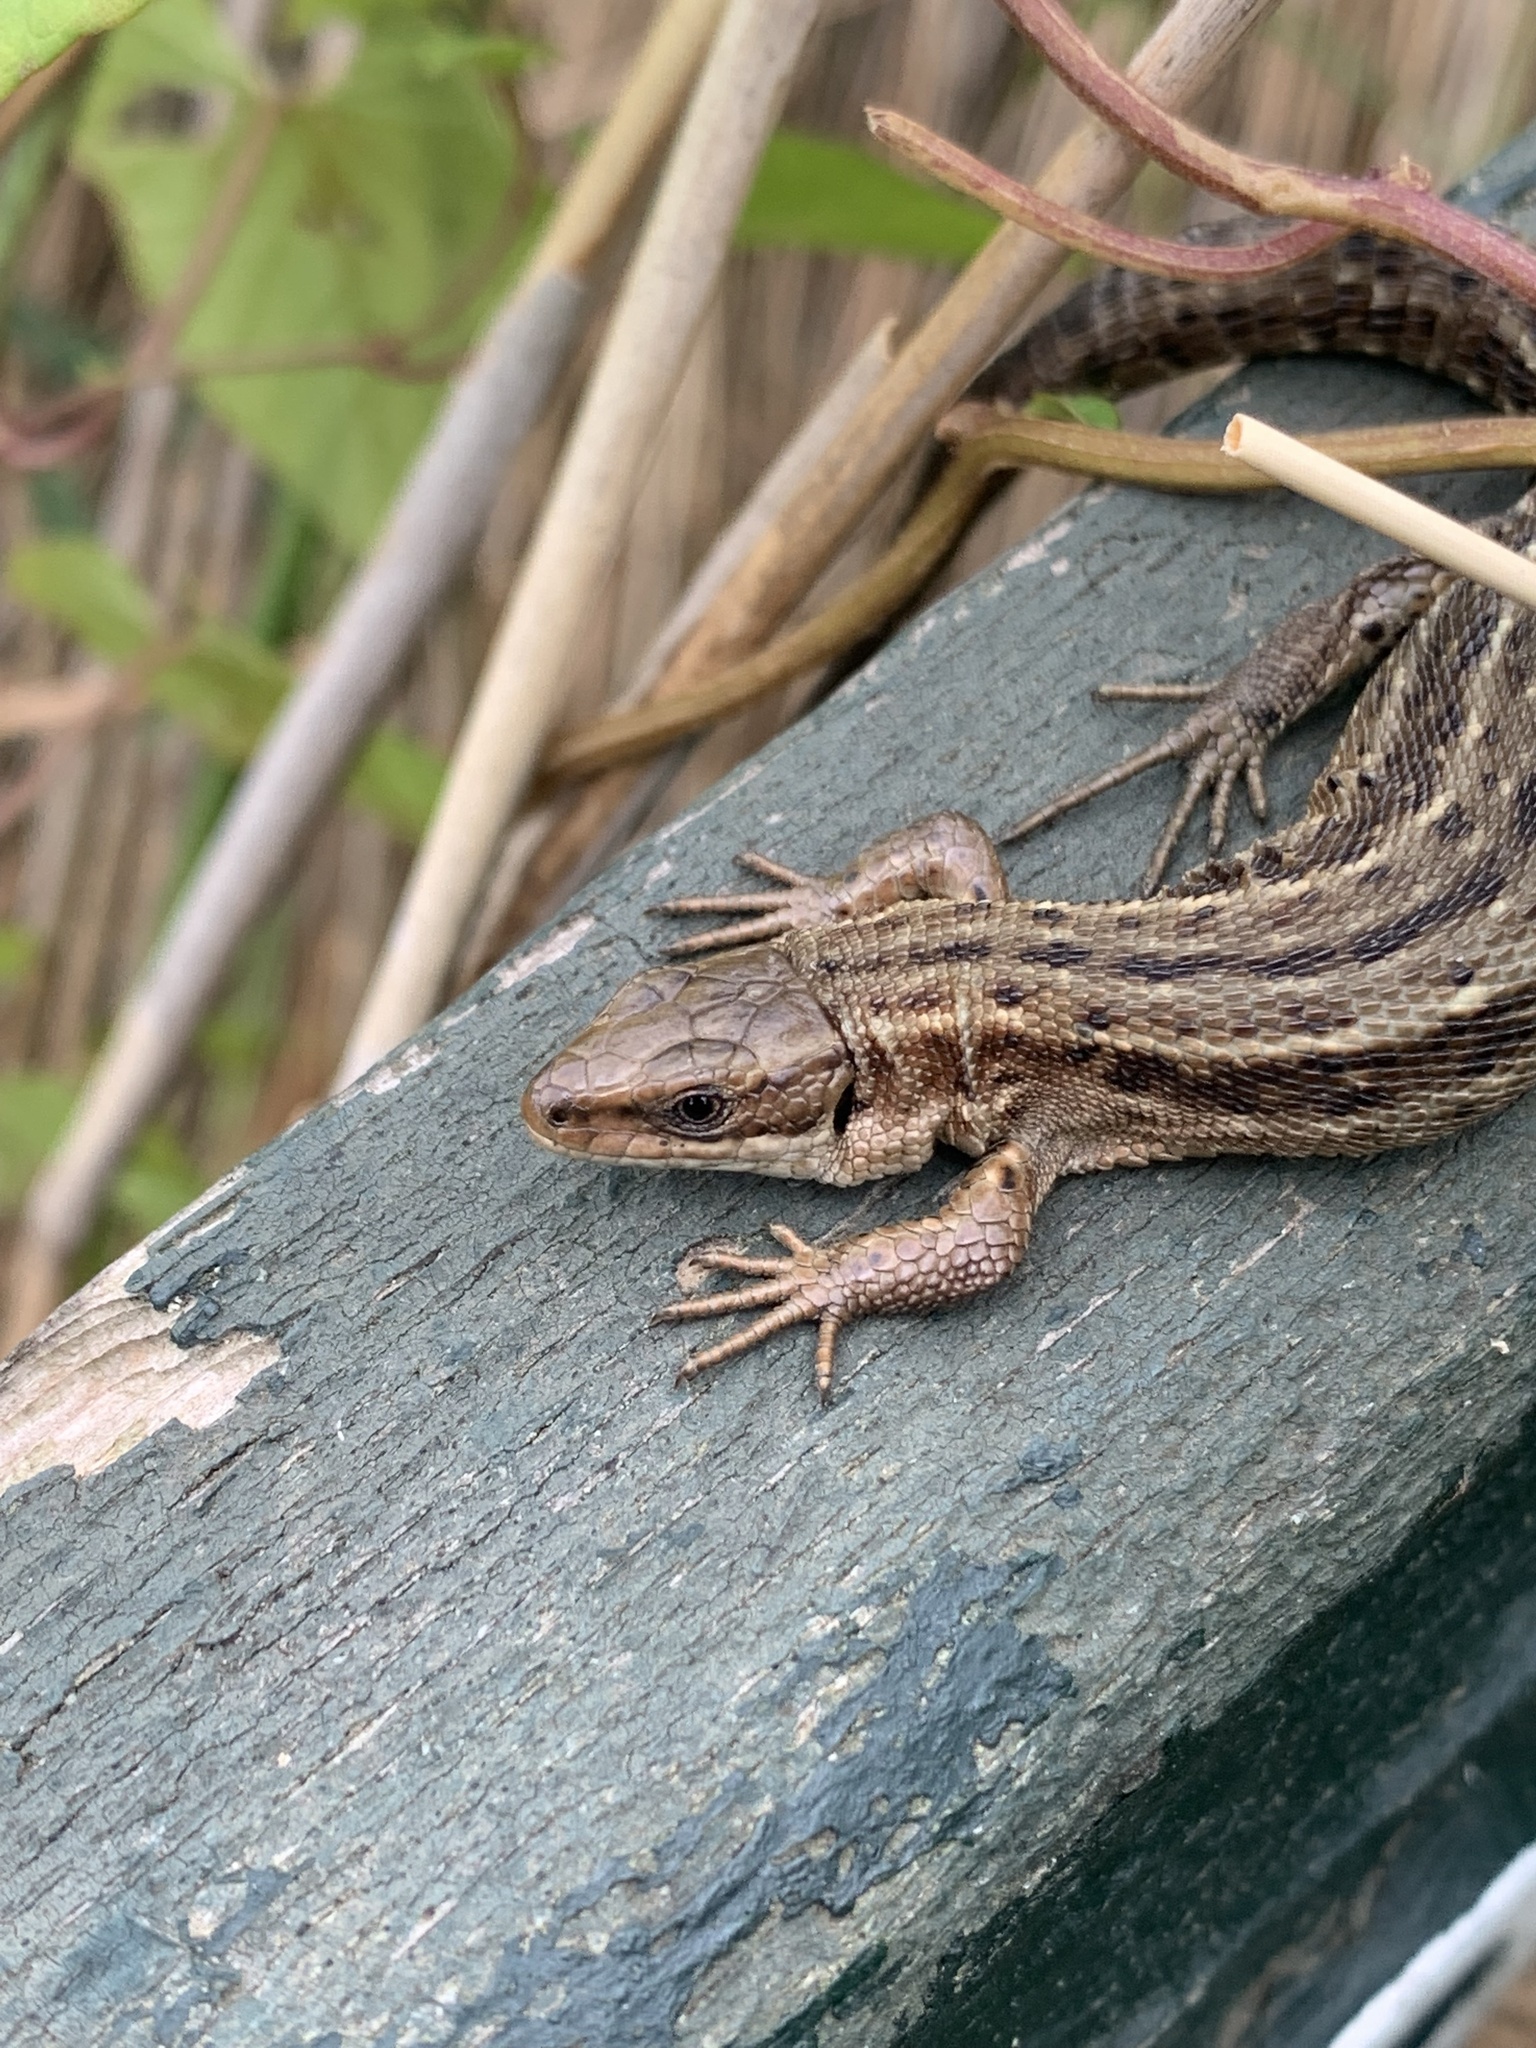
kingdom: Animalia
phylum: Chordata
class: Squamata
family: Lacertidae
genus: Zootoca
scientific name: Zootoca vivipara
